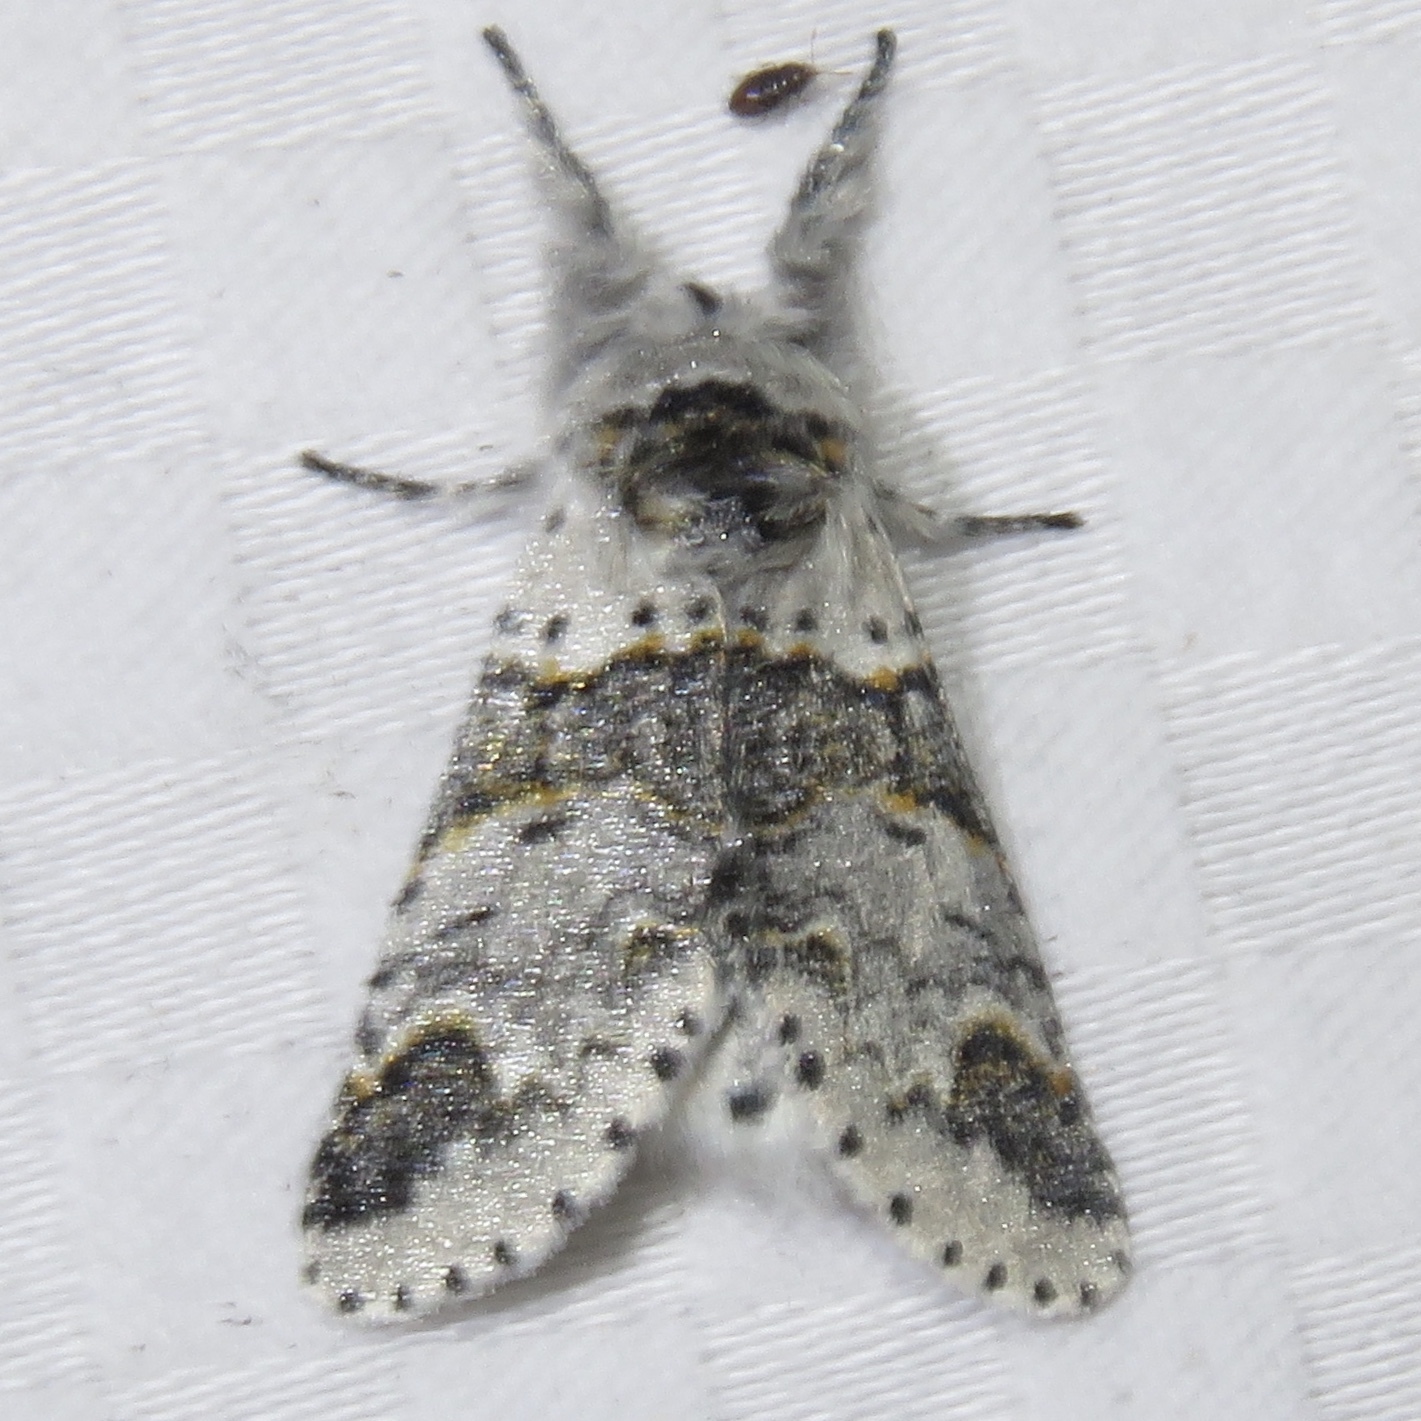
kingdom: Animalia
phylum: Arthropoda
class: Insecta
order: Lepidoptera
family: Notodontidae
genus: Furcula
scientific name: Furcula occidentalis
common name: Western furcula moth
